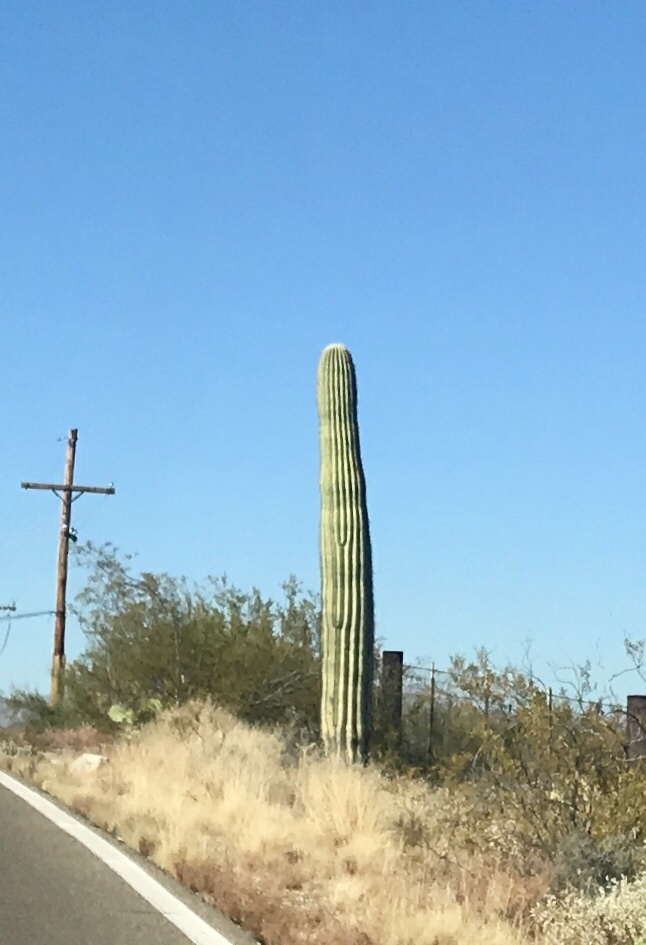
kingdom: Plantae
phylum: Tracheophyta
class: Magnoliopsida
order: Caryophyllales
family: Cactaceae
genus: Carnegiea
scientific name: Carnegiea gigantea
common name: Saguaro
